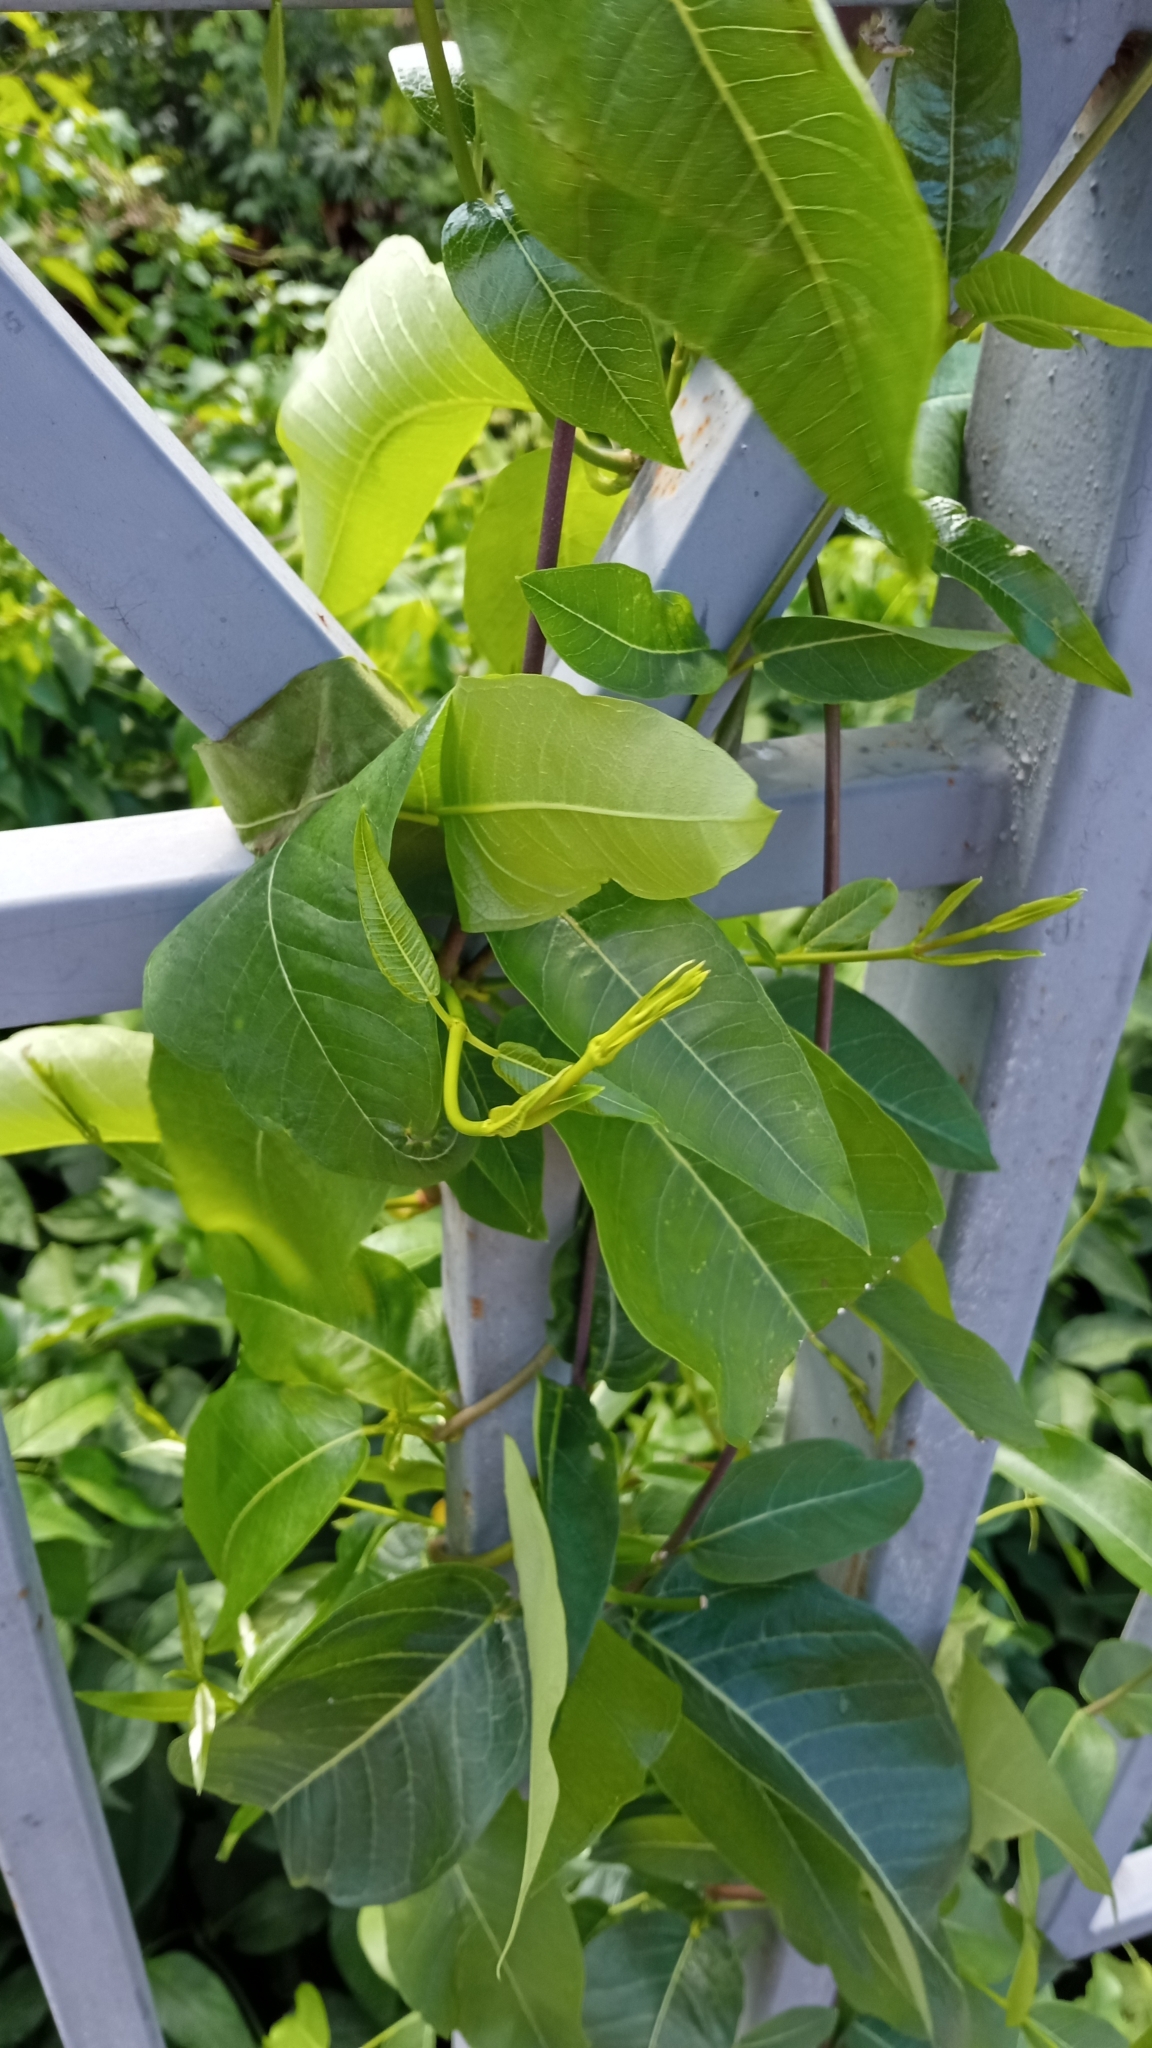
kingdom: Plantae
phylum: Tracheophyta
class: Magnoliopsida
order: Gentianales
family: Apocynaceae
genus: Periploca
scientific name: Periploca graeca
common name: Silkvine
